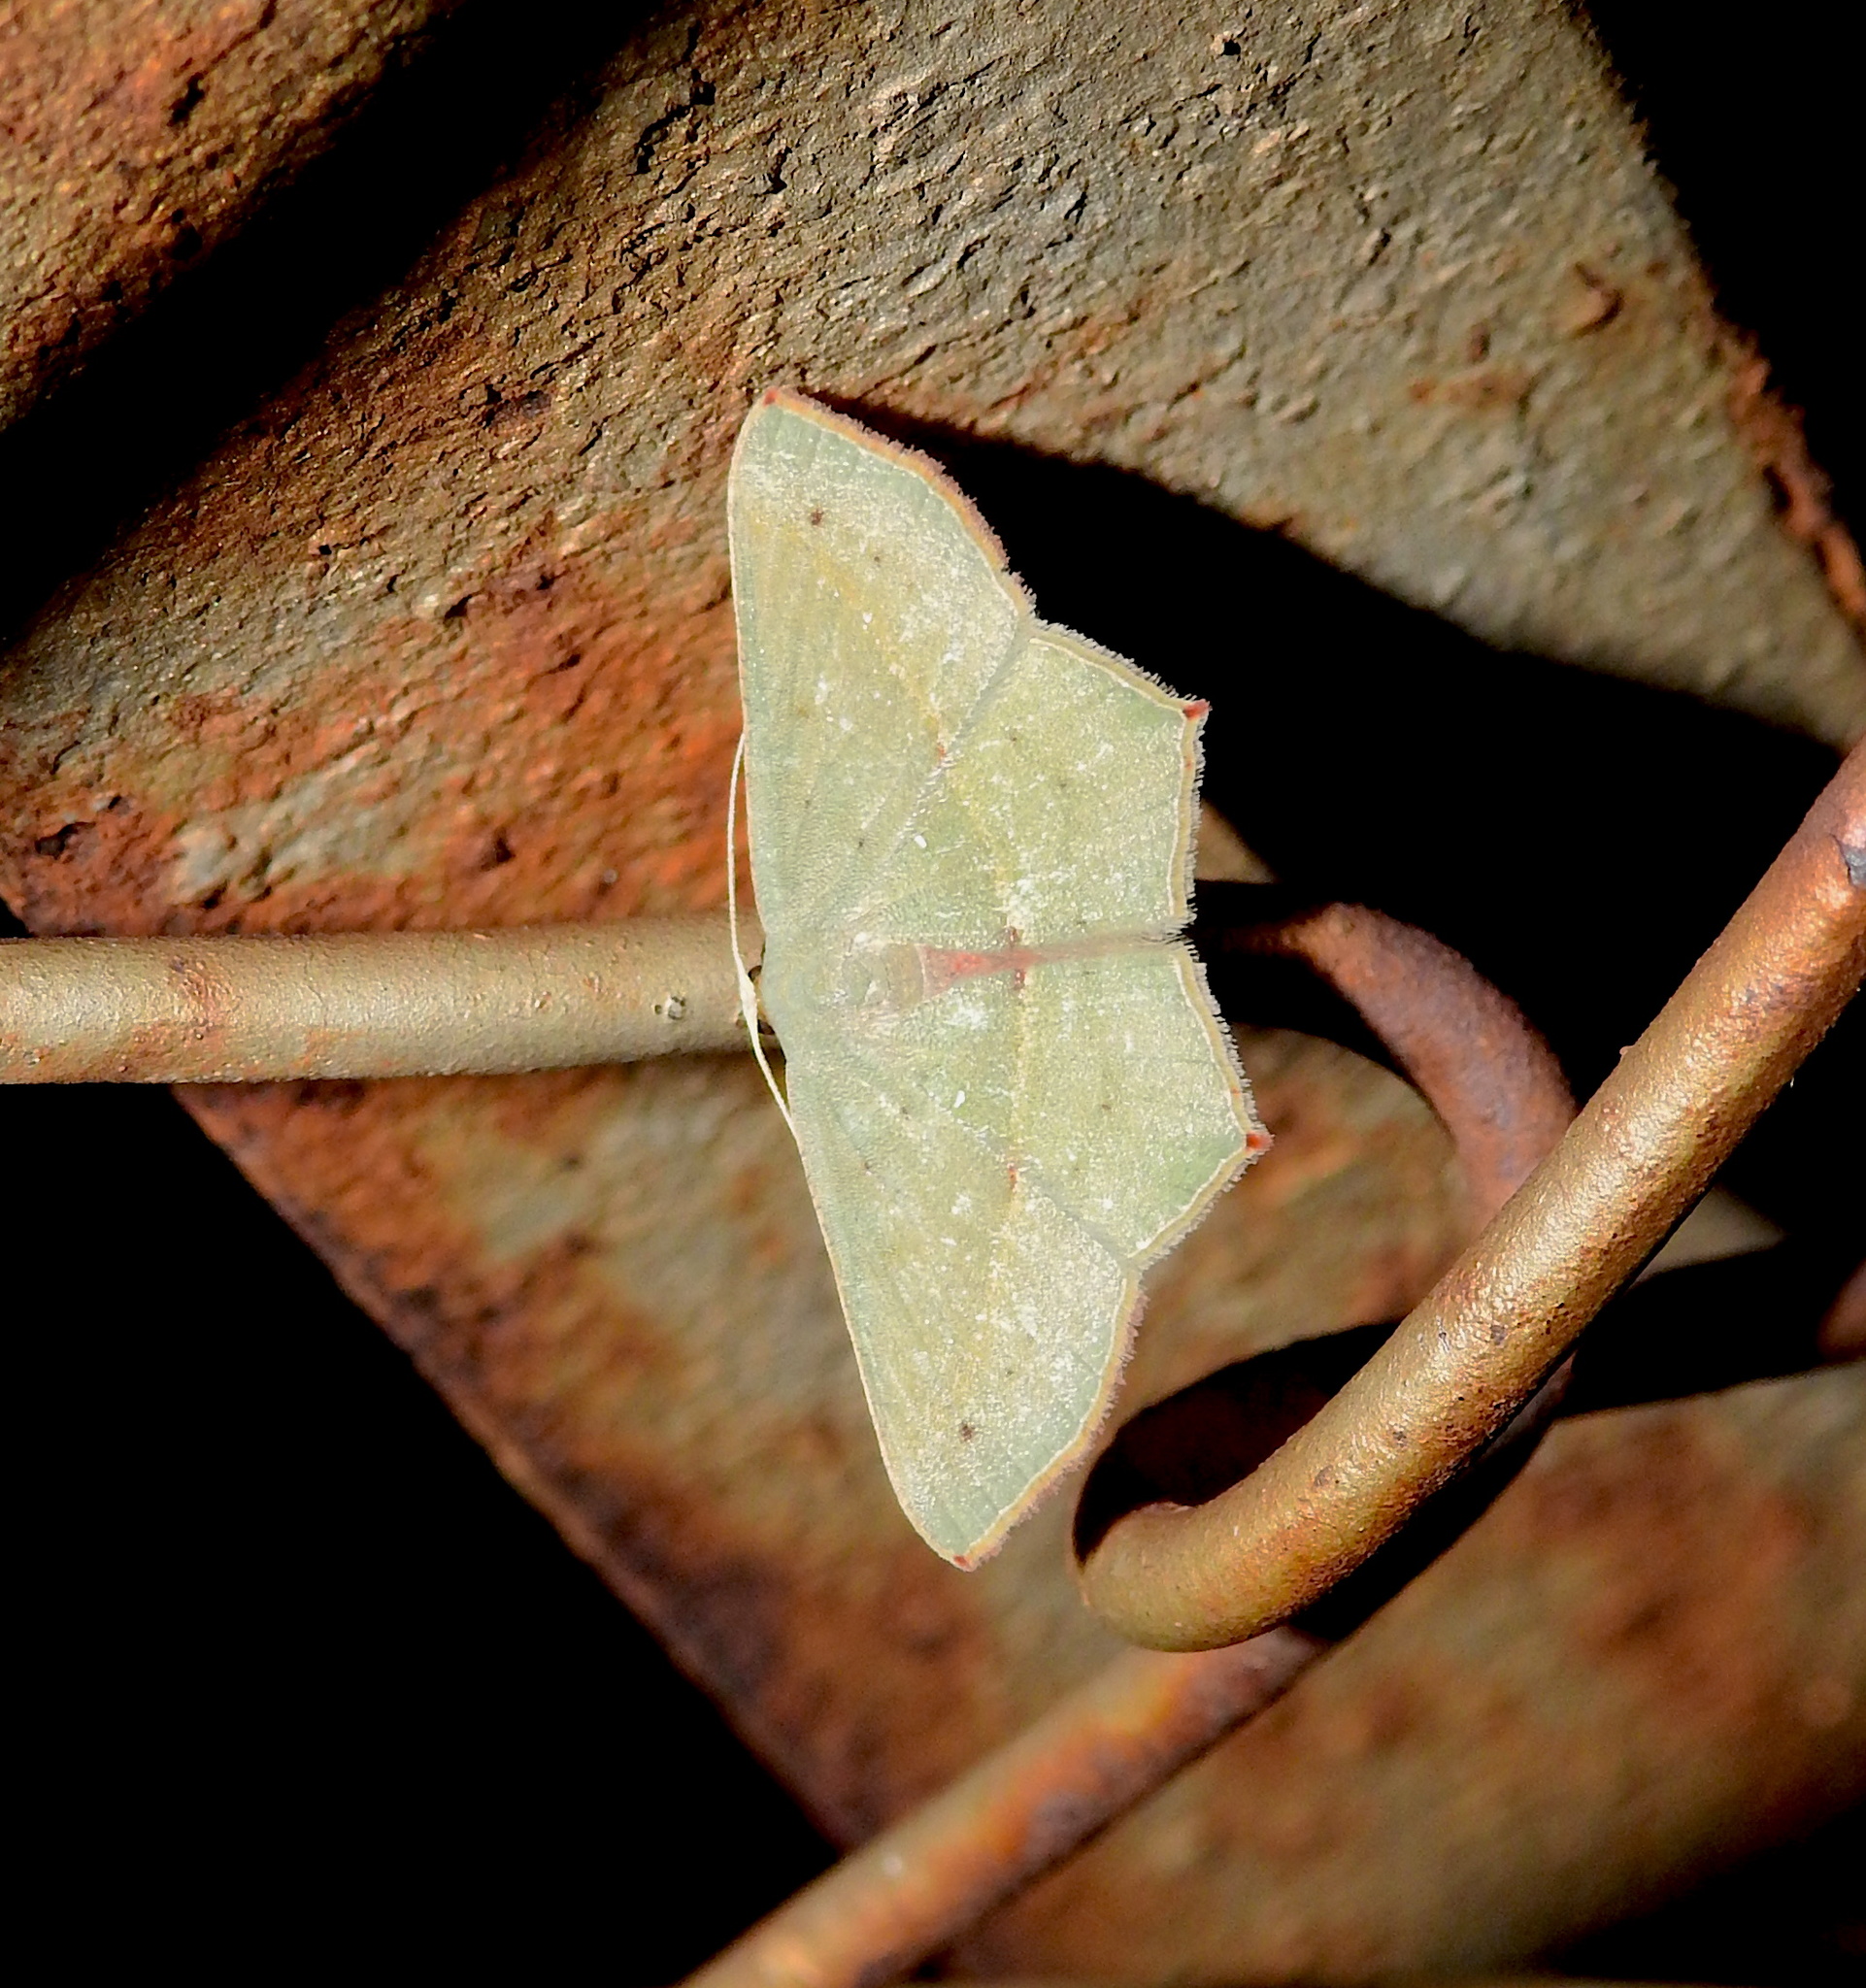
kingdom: Animalia
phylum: Arthropoda
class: Insecta
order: Lepidoptera
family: Geometridae
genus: Traminda
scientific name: Traminda mundissima
